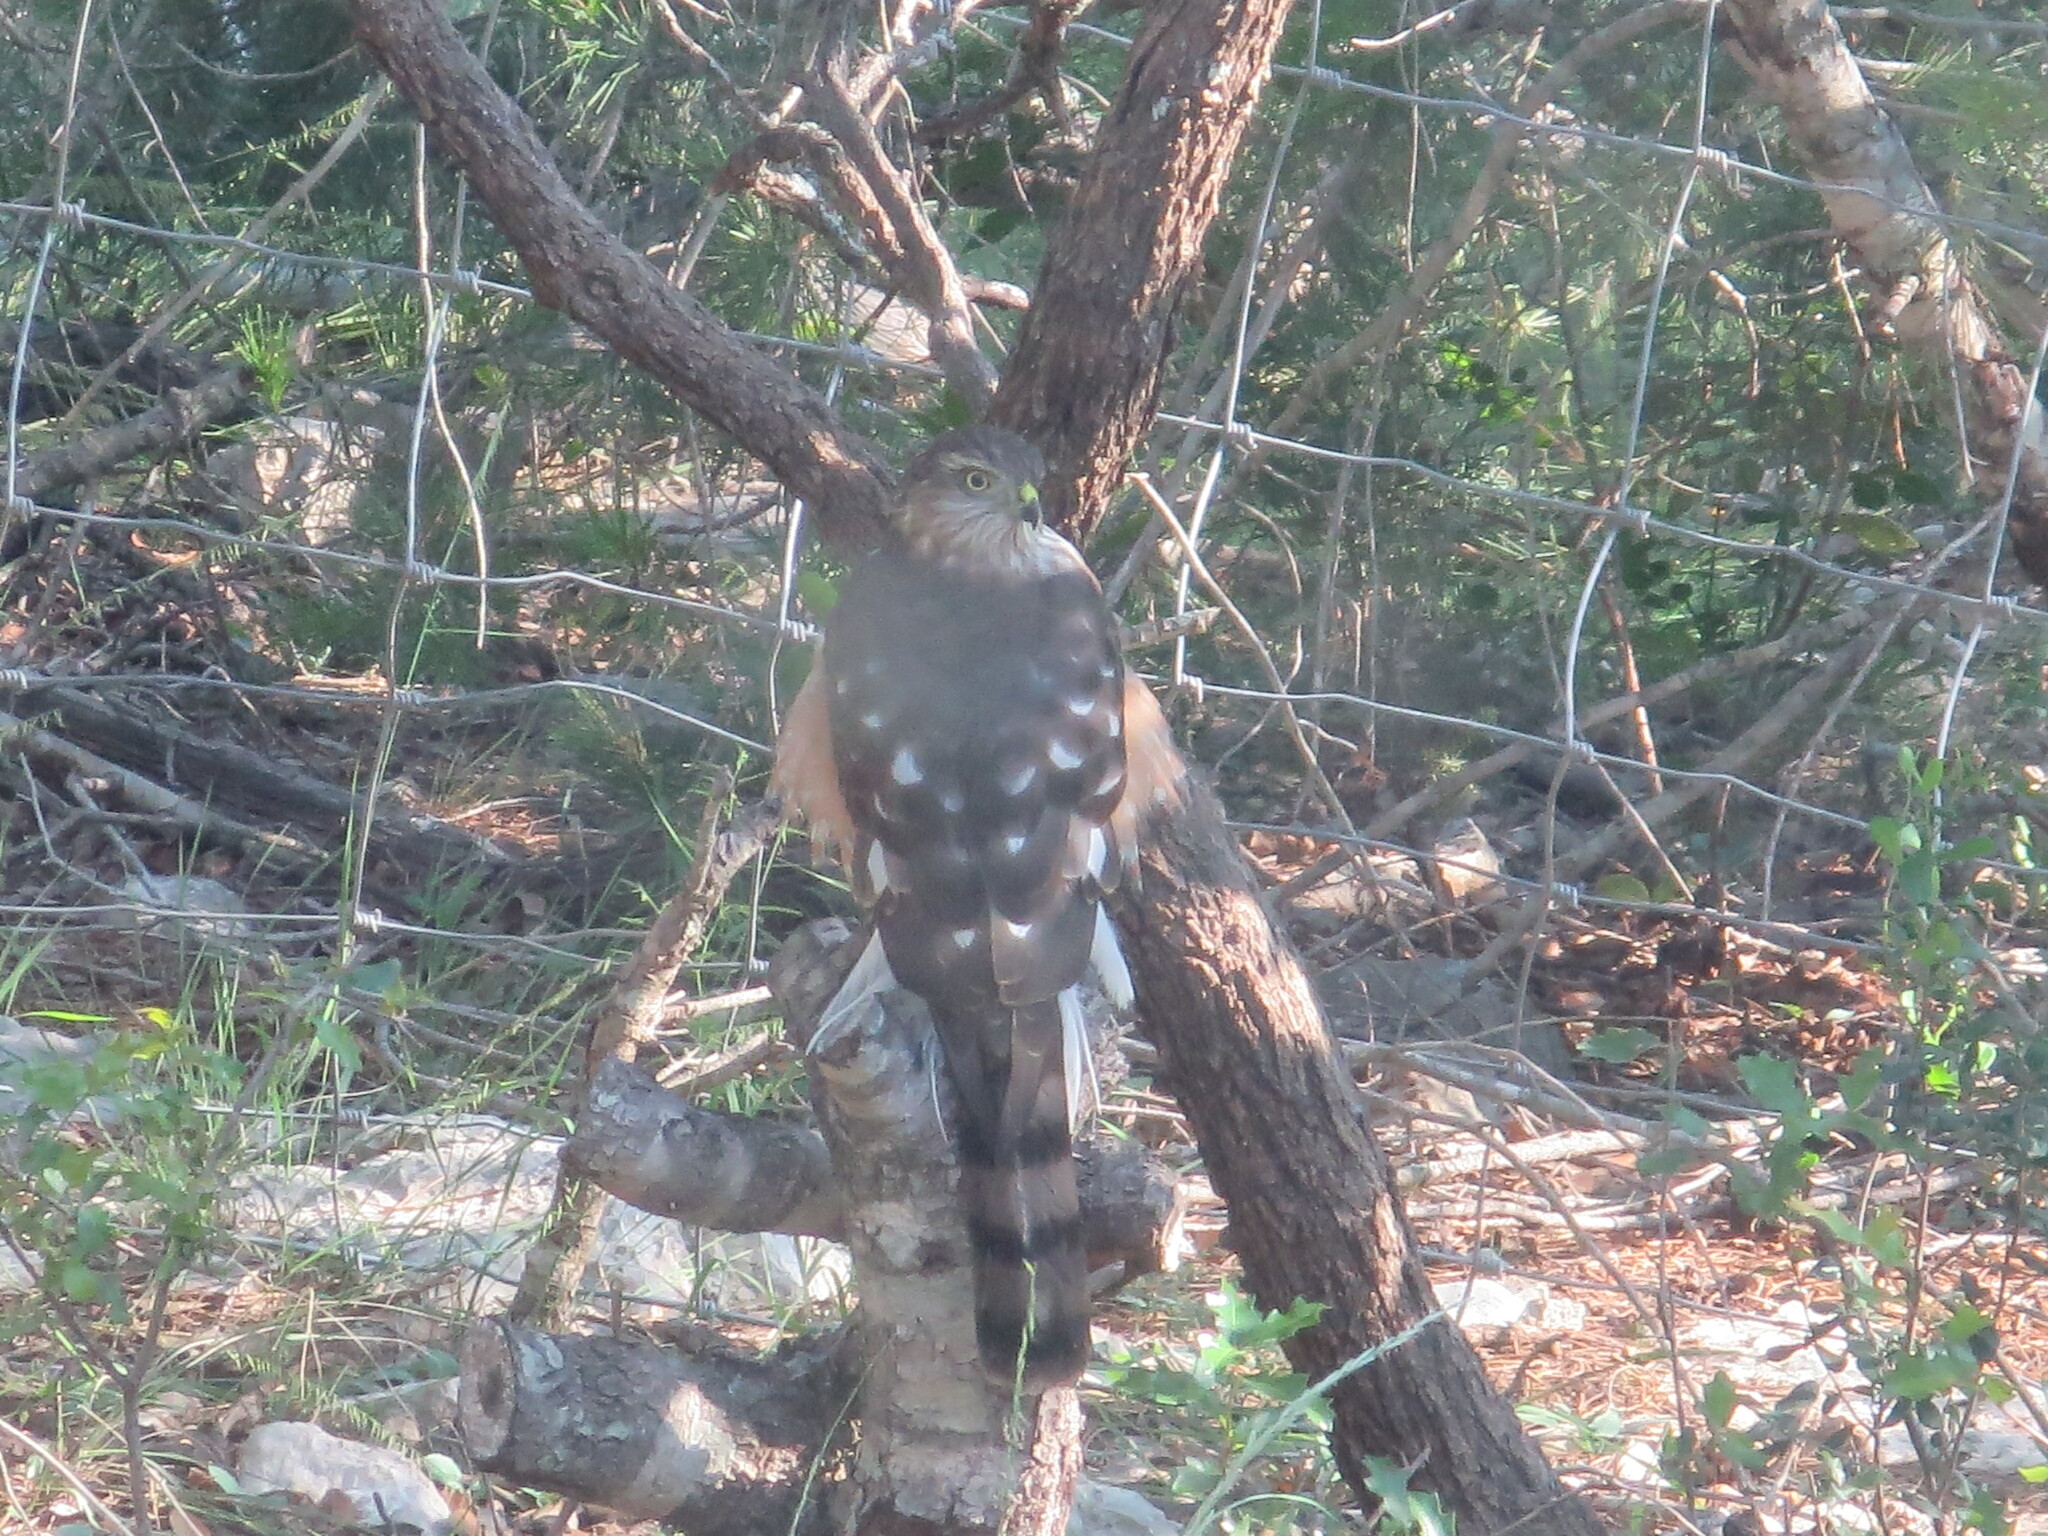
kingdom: Animalia
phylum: Chordata
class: Aves
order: Accipitriformes
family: Accipitridae
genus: Accipiter
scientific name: Accipiter cooperii
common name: Cooper's hawk
